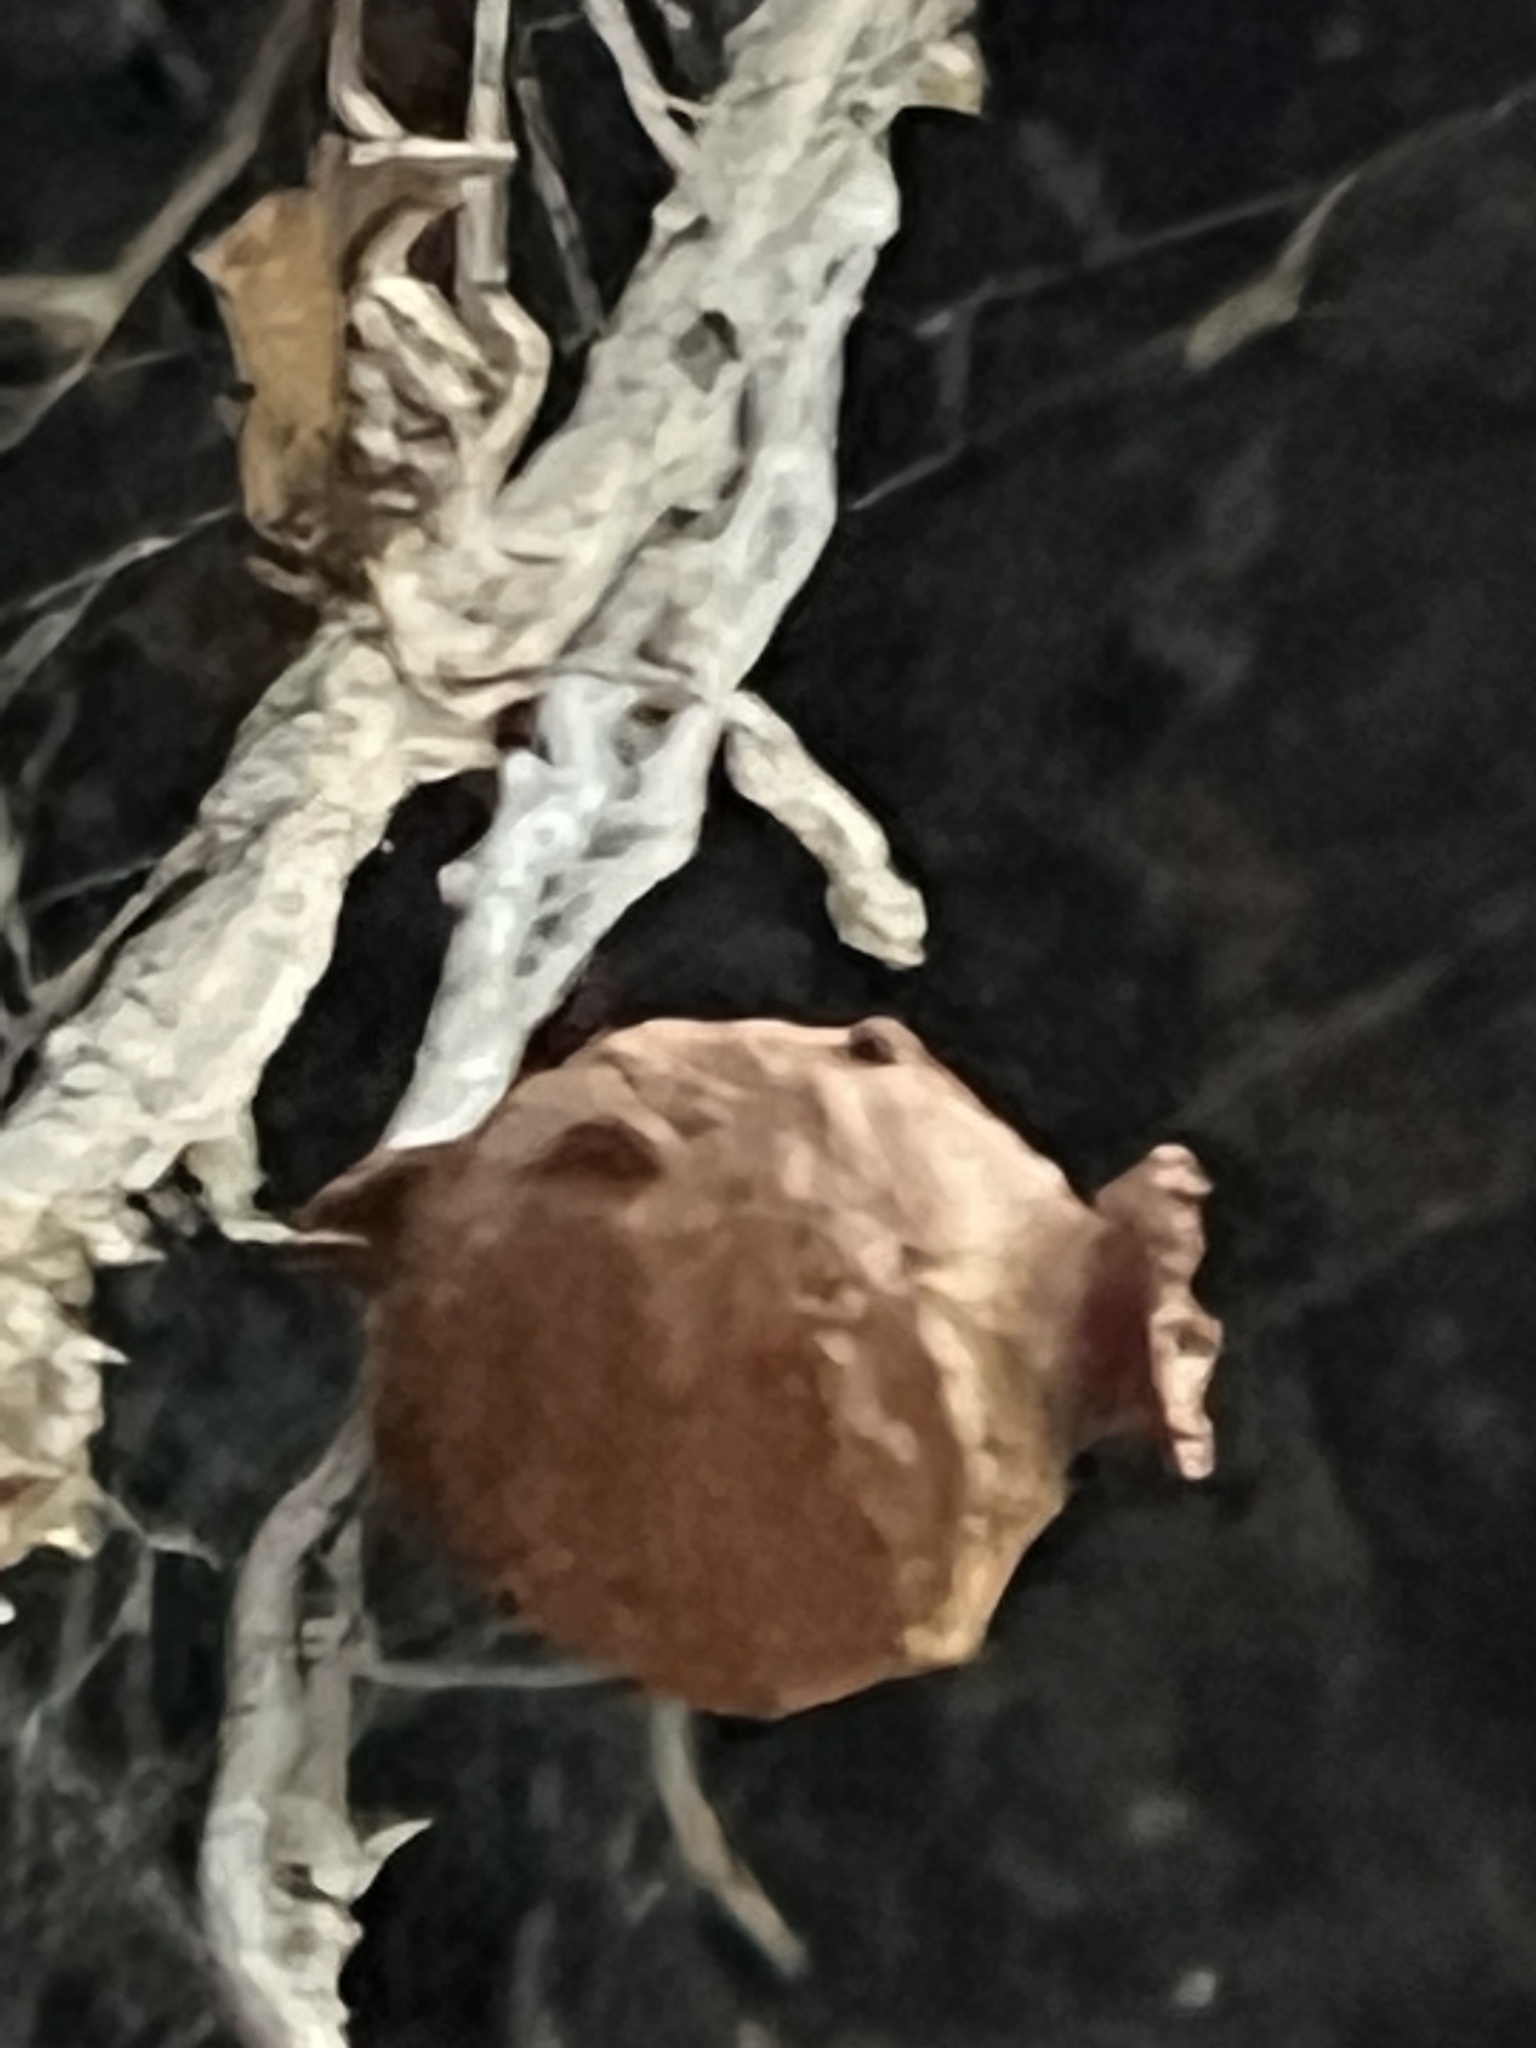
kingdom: Animalia
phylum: Arthropoda
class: Insecta
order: Hymenoptera
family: Eumenidae
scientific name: Eumenidae
